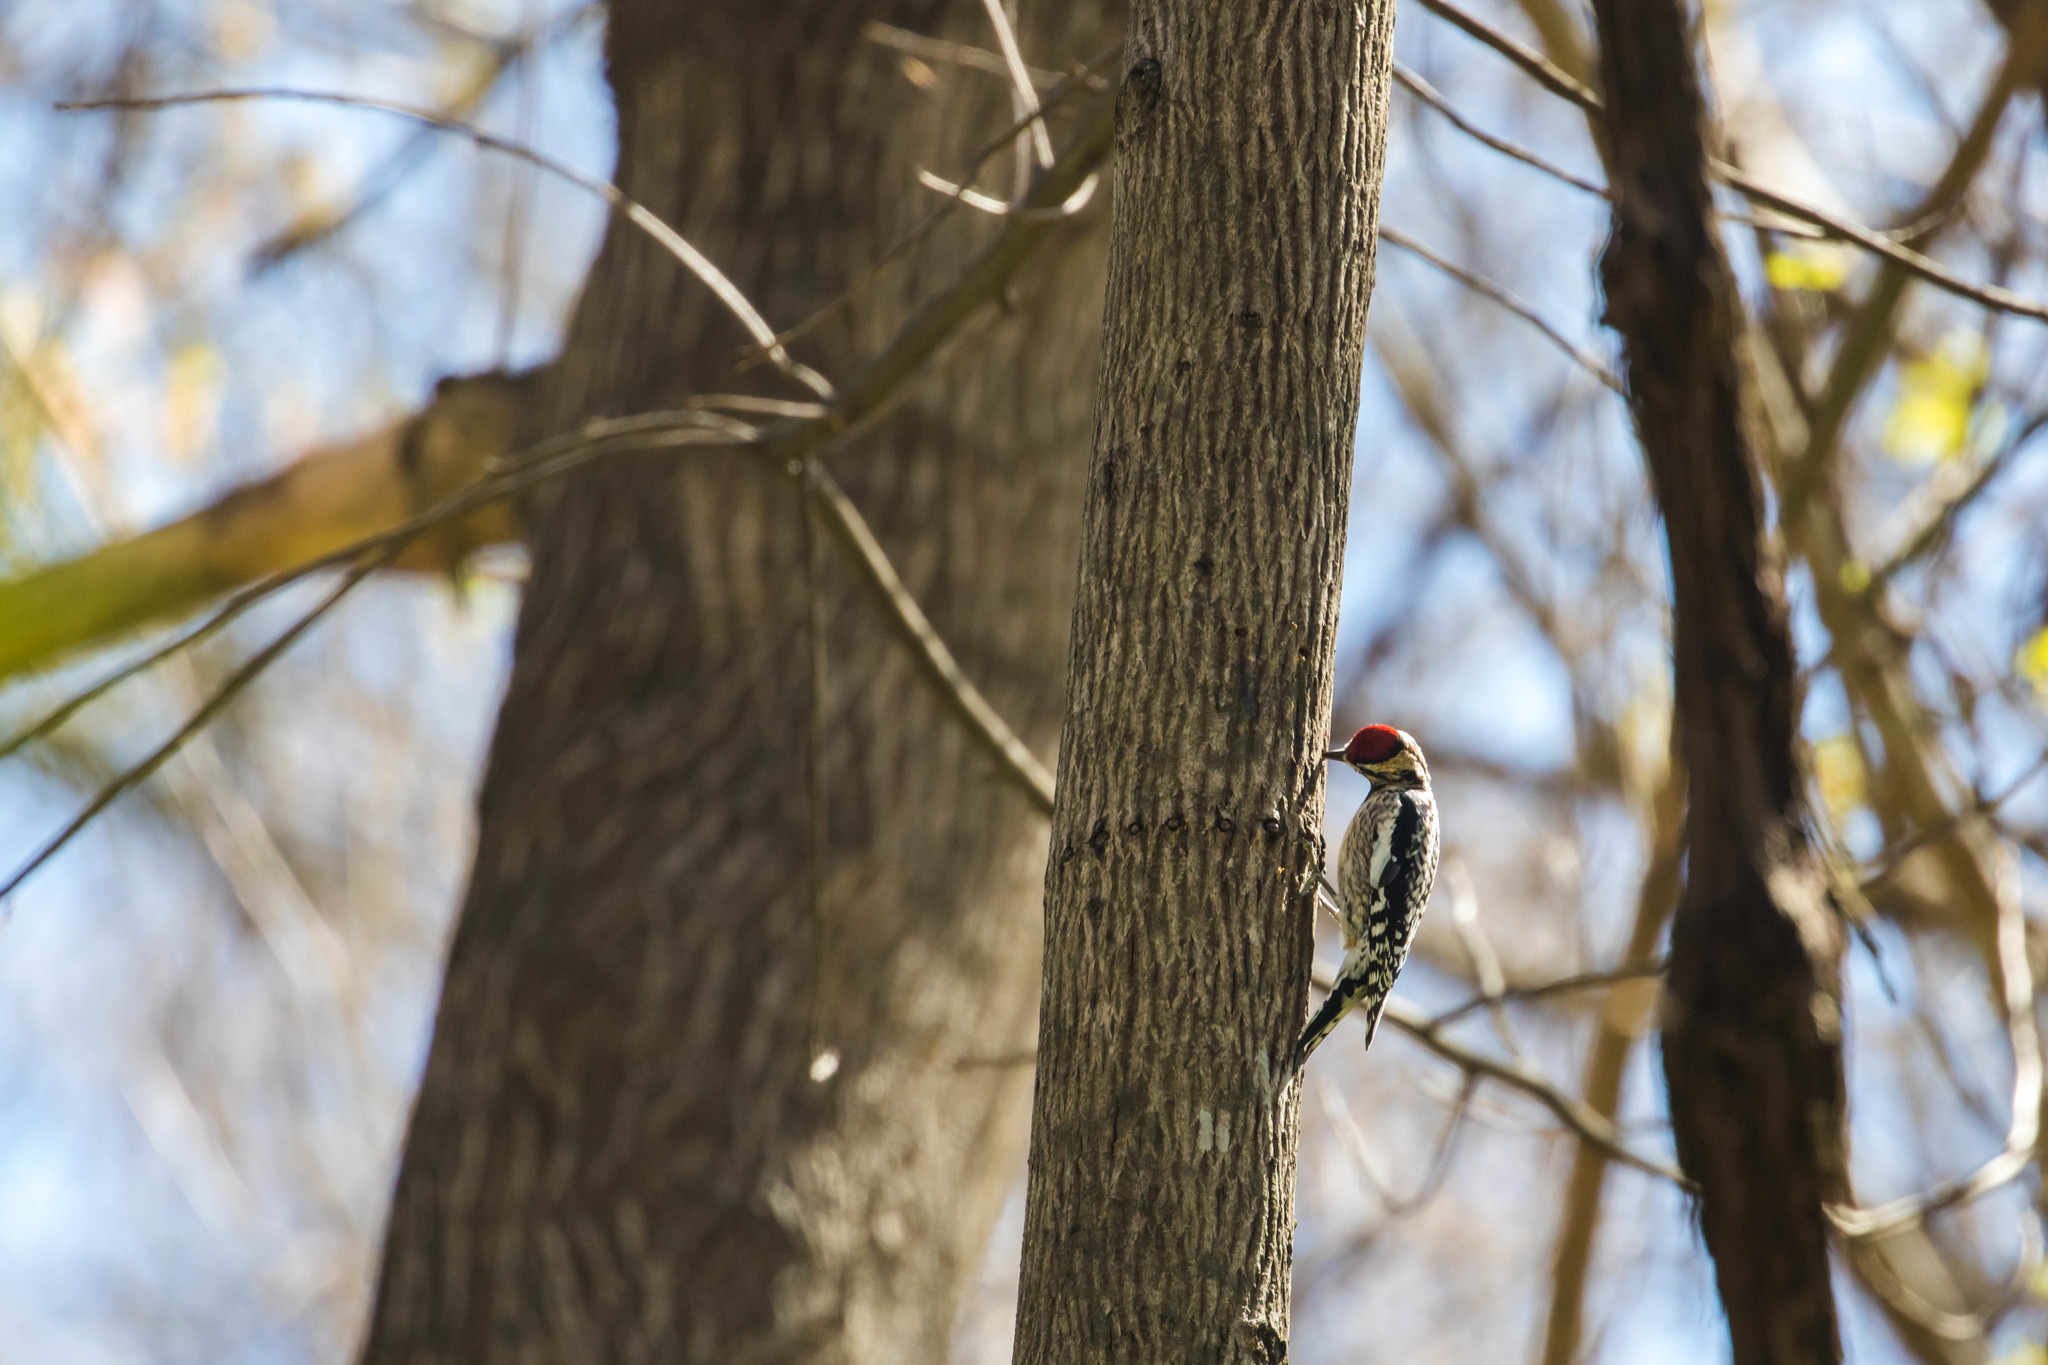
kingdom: Animalia
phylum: Chordata
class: Aves
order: Piciformes
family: Picidae
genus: Sphyrapicus
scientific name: Sphyrapicus varius
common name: Yellow-bellied sapsucker
